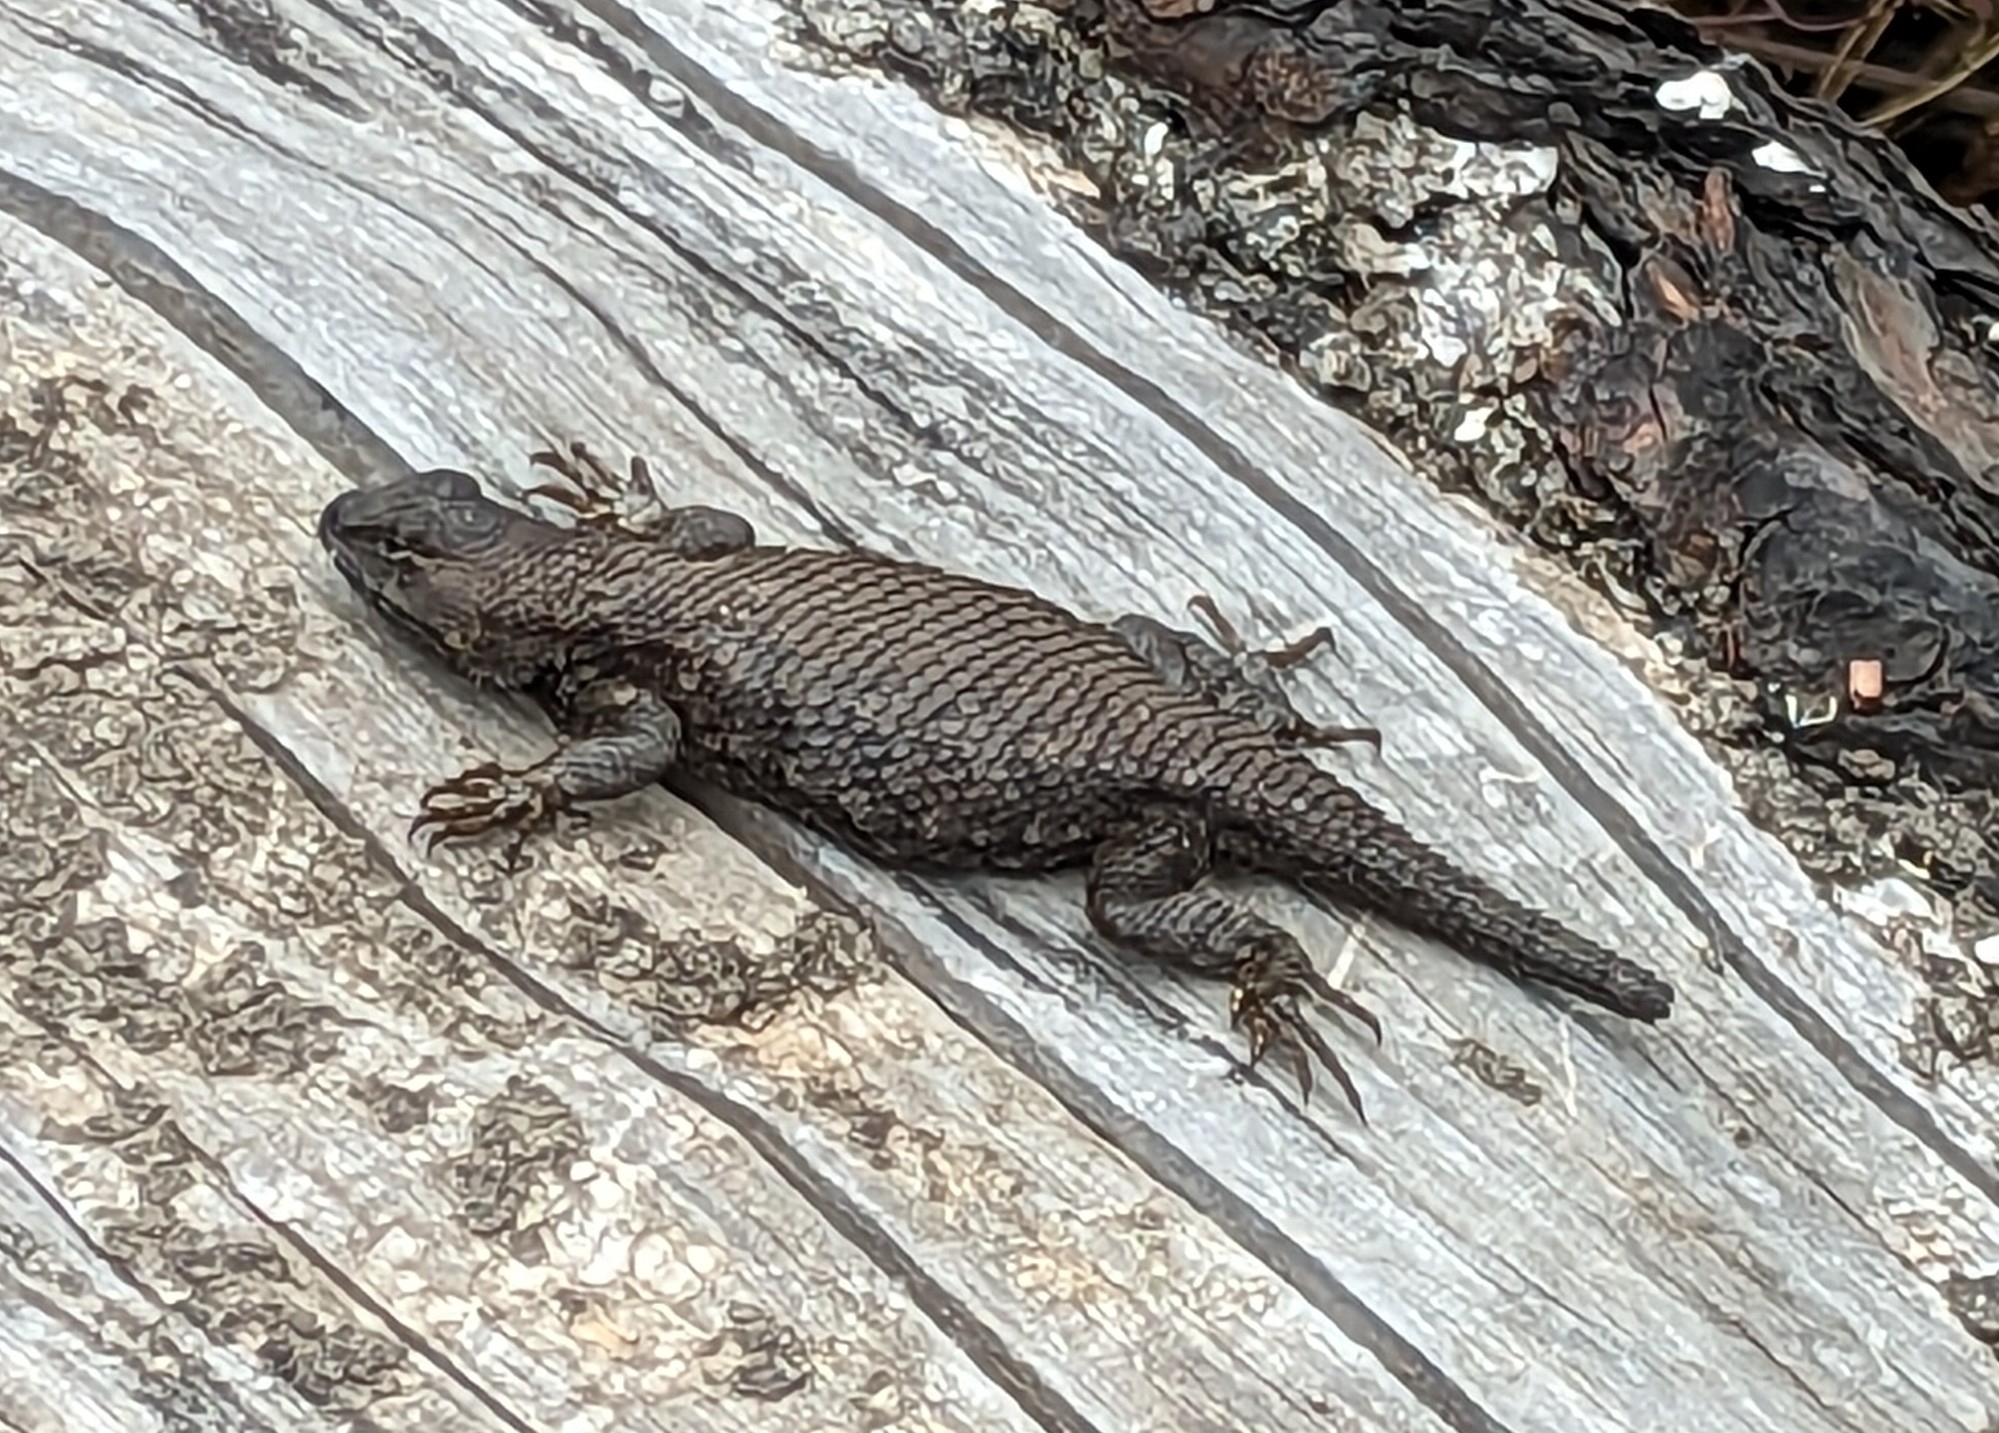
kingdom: Animalia
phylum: Chordata
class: Squamata
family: Phrynosomatidae
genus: Sceloporus
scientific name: Sceloporus occidentalis
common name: Western fence lizard
